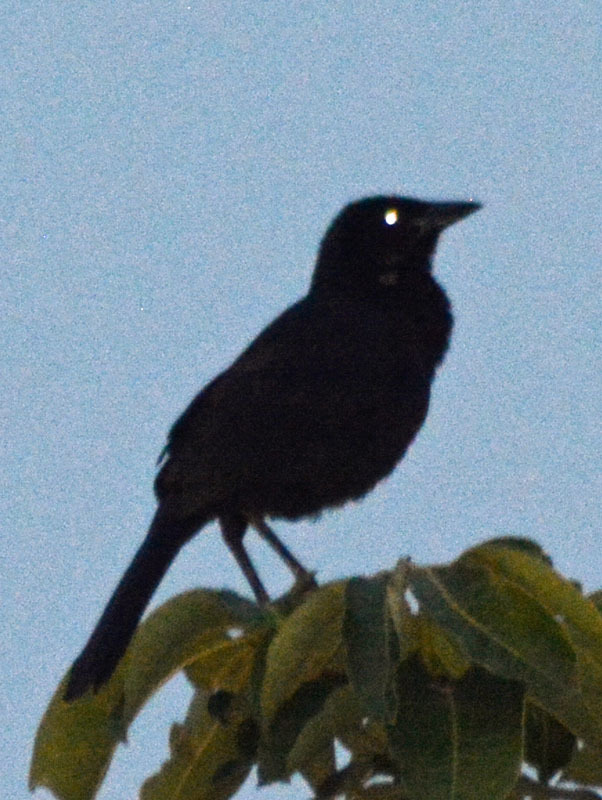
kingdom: Animalia
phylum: Chordata
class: Aves
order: Passeriformes
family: Icteridae
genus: Dives
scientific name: Dives dives
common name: Melodious blackbird
